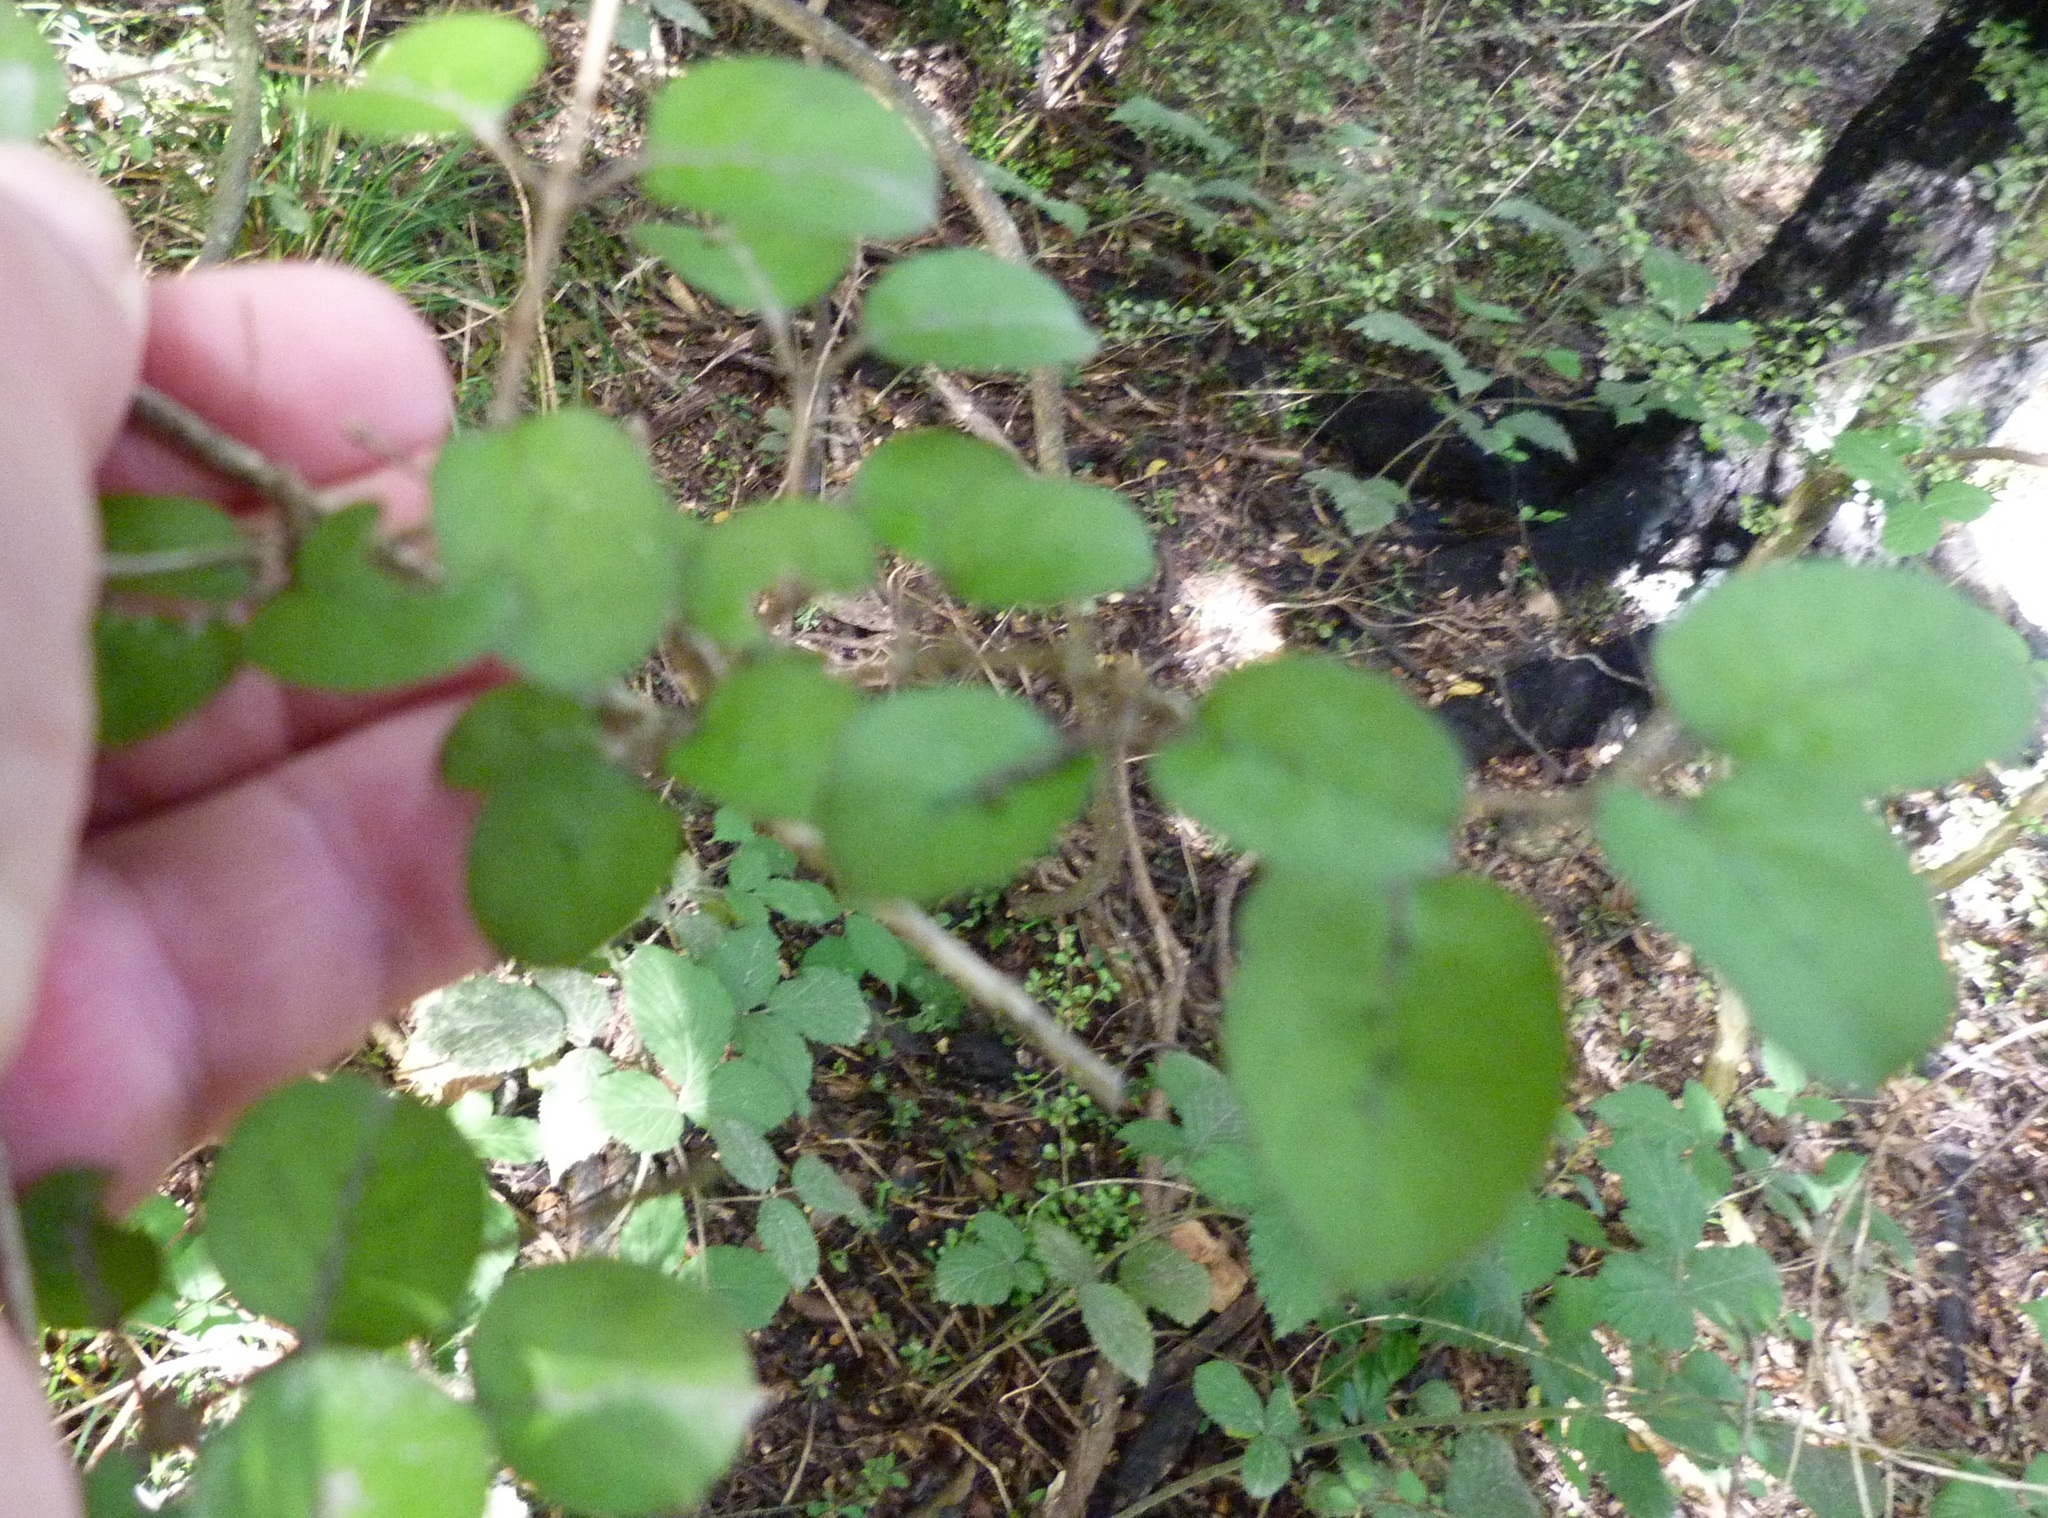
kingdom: Plantae
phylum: Tracheophyta
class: Magnoliopsida
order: Gentianales
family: Rubiaceae
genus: Coprosma
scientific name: Coprosma rotundifolia
